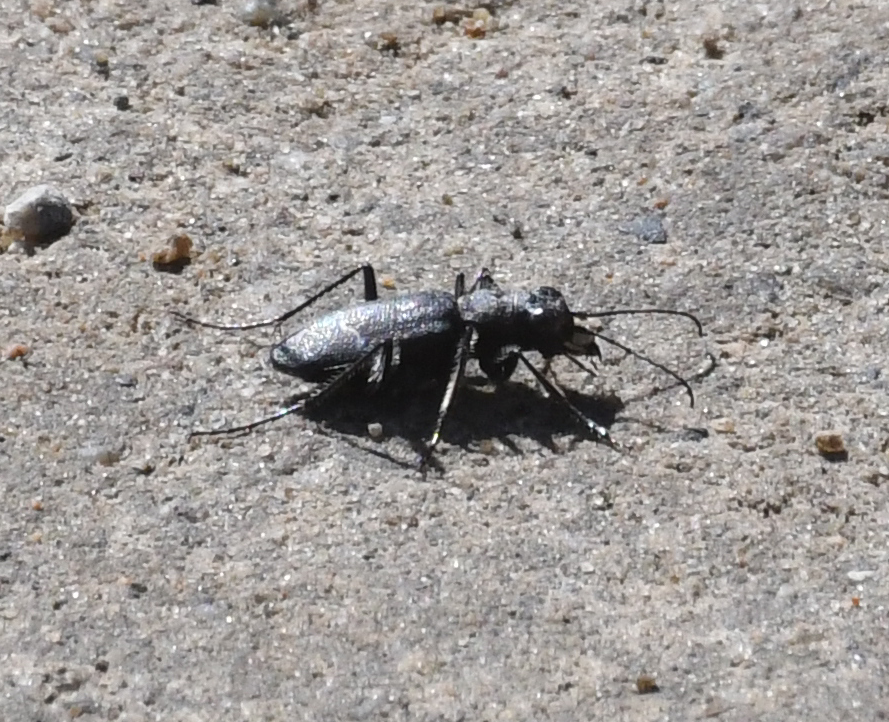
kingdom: Animalia
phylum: Arthropoda
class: Insecta
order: Coleoptera
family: Carabidae
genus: Cicindela
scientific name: Cicindela longilabris
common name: Boreal long-lipped tiger beetle
